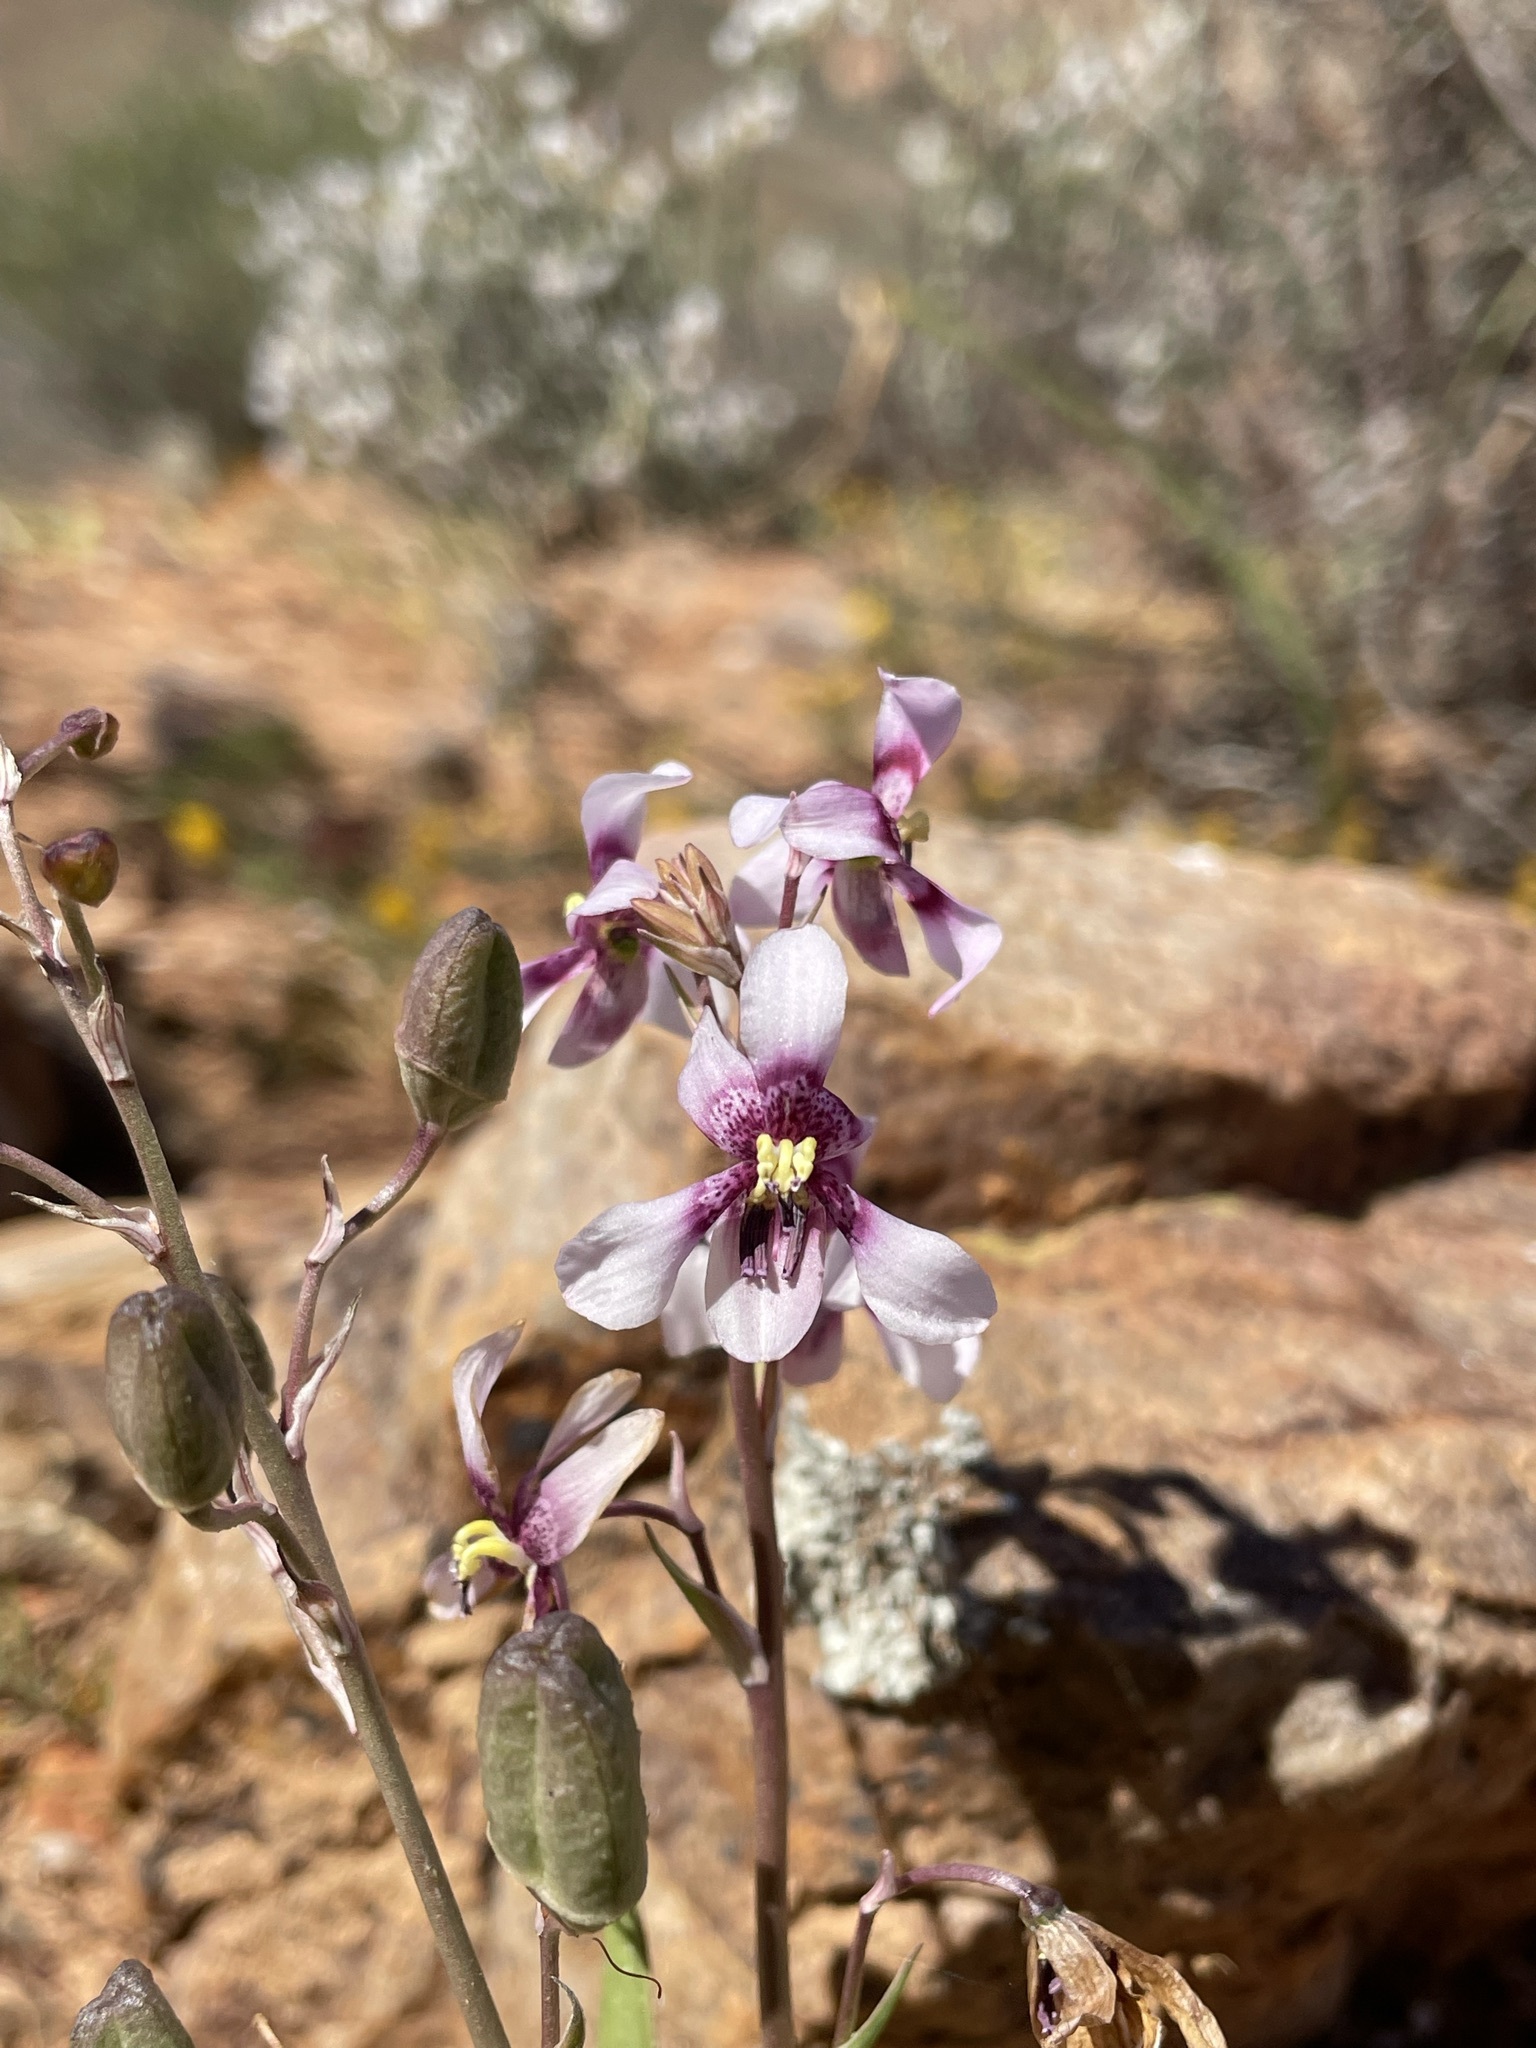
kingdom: Plantae
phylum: Tracheophyta
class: Liliopsida
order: Asparagales
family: Tecophilaeaceae
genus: Cyanella
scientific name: Cyanella orchidiformis
